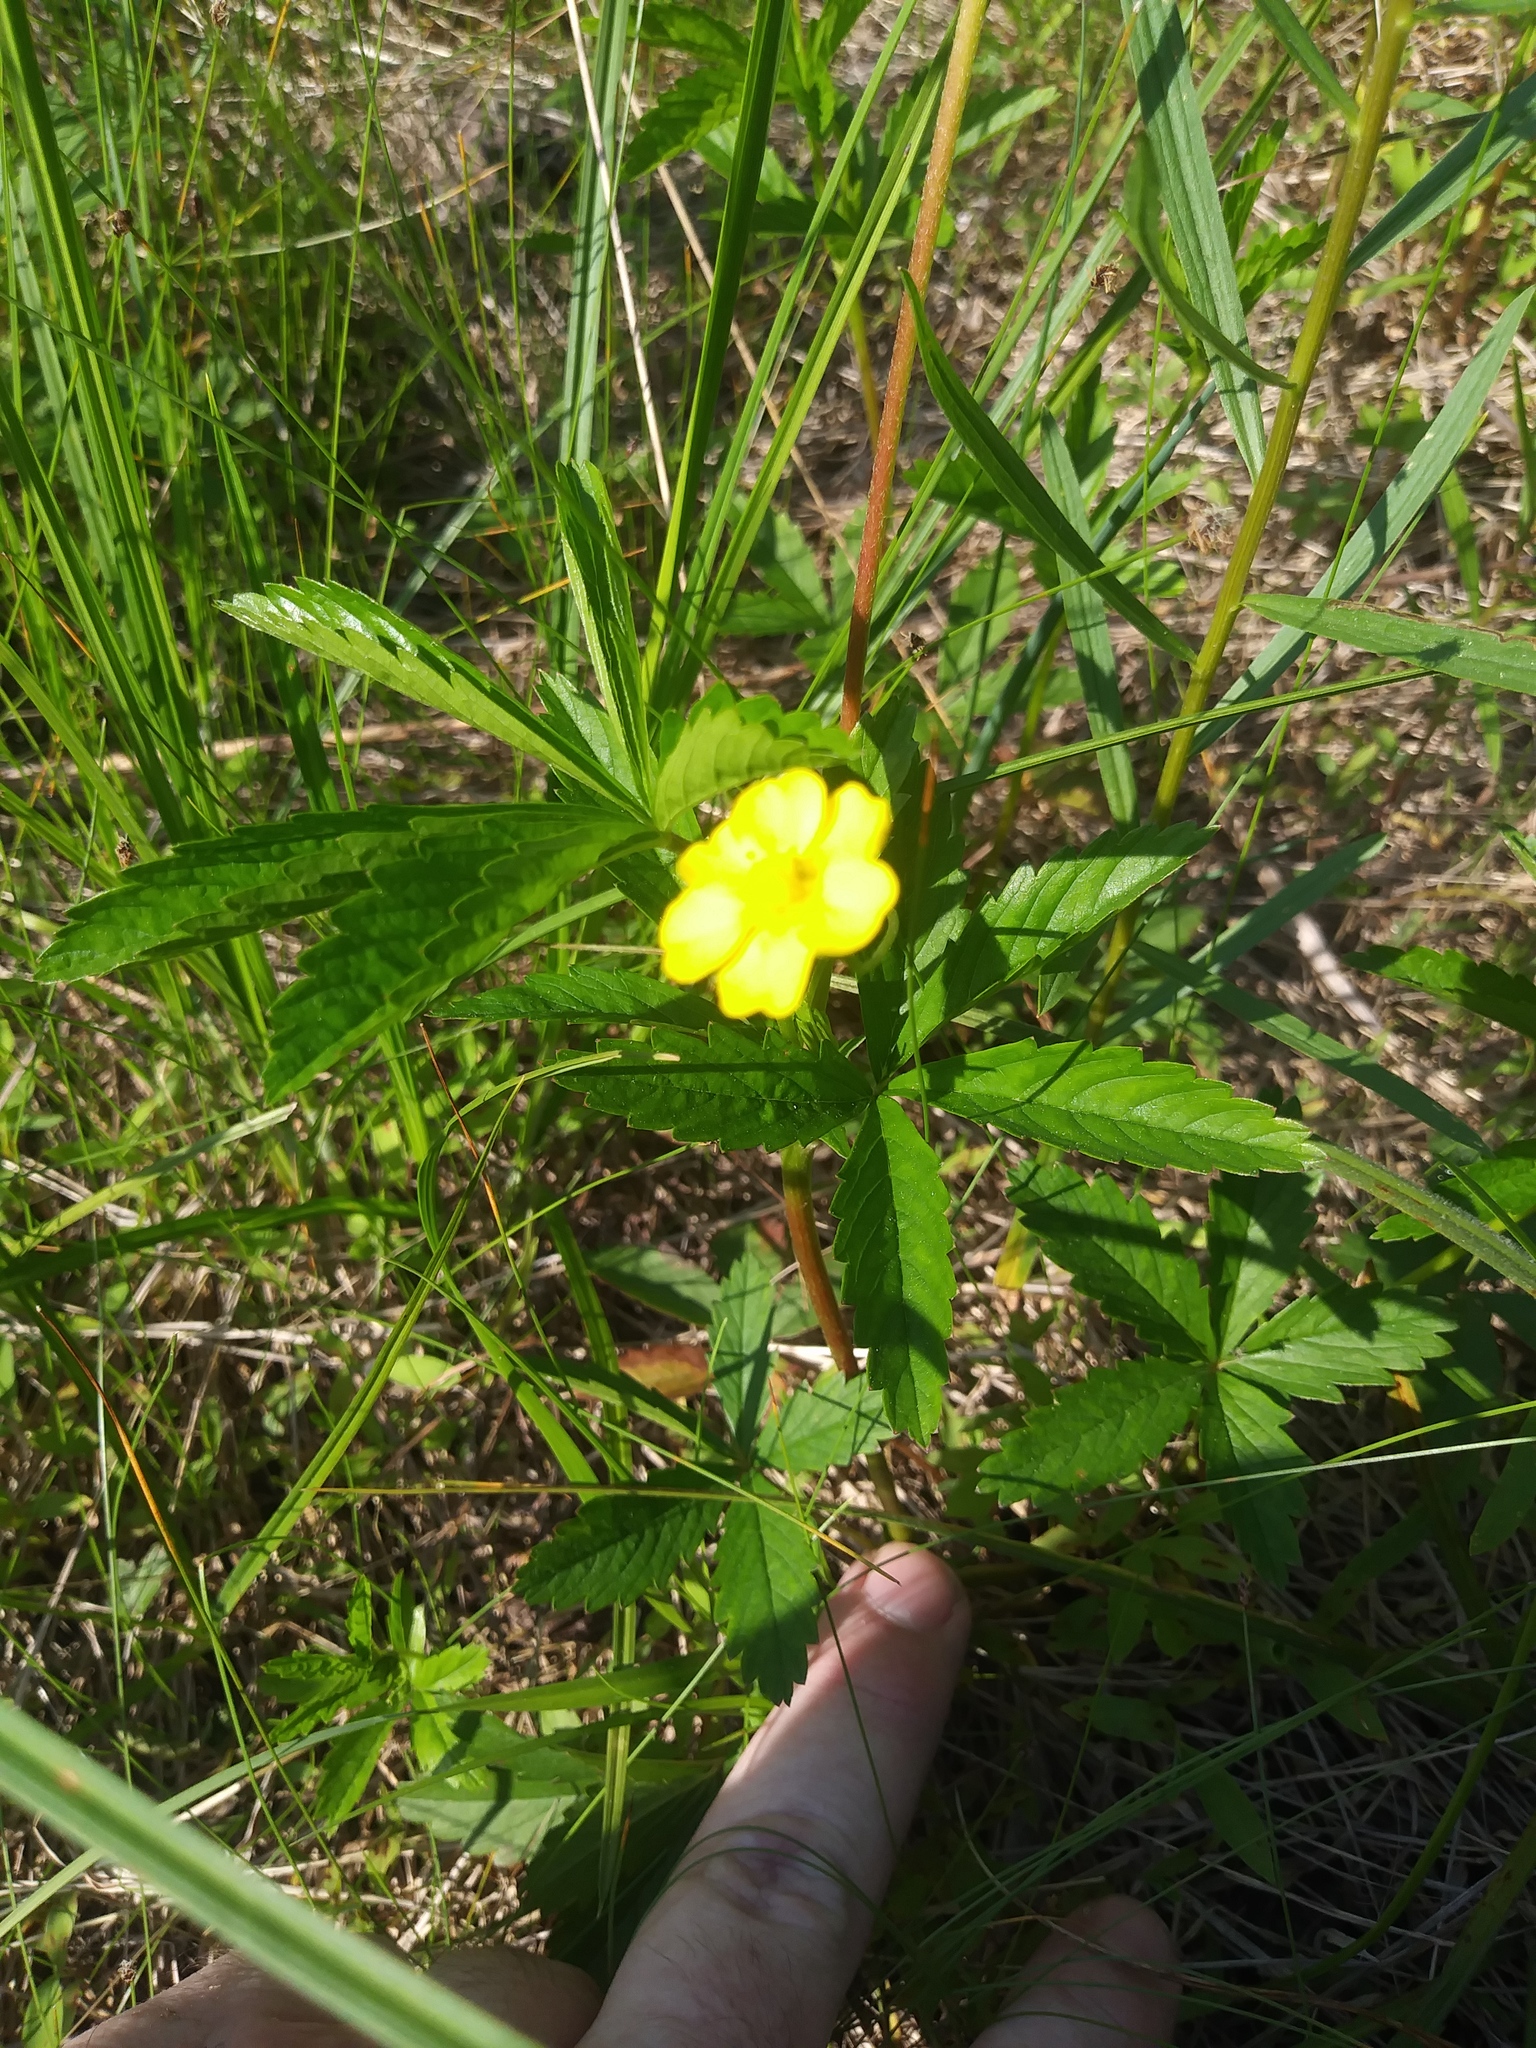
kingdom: Plantae
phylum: Tracheophyta
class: Magnoliopsida
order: Rosales
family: Rosaceae
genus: Potentilla
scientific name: Potentilla simplex
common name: Old field cinquefoil
